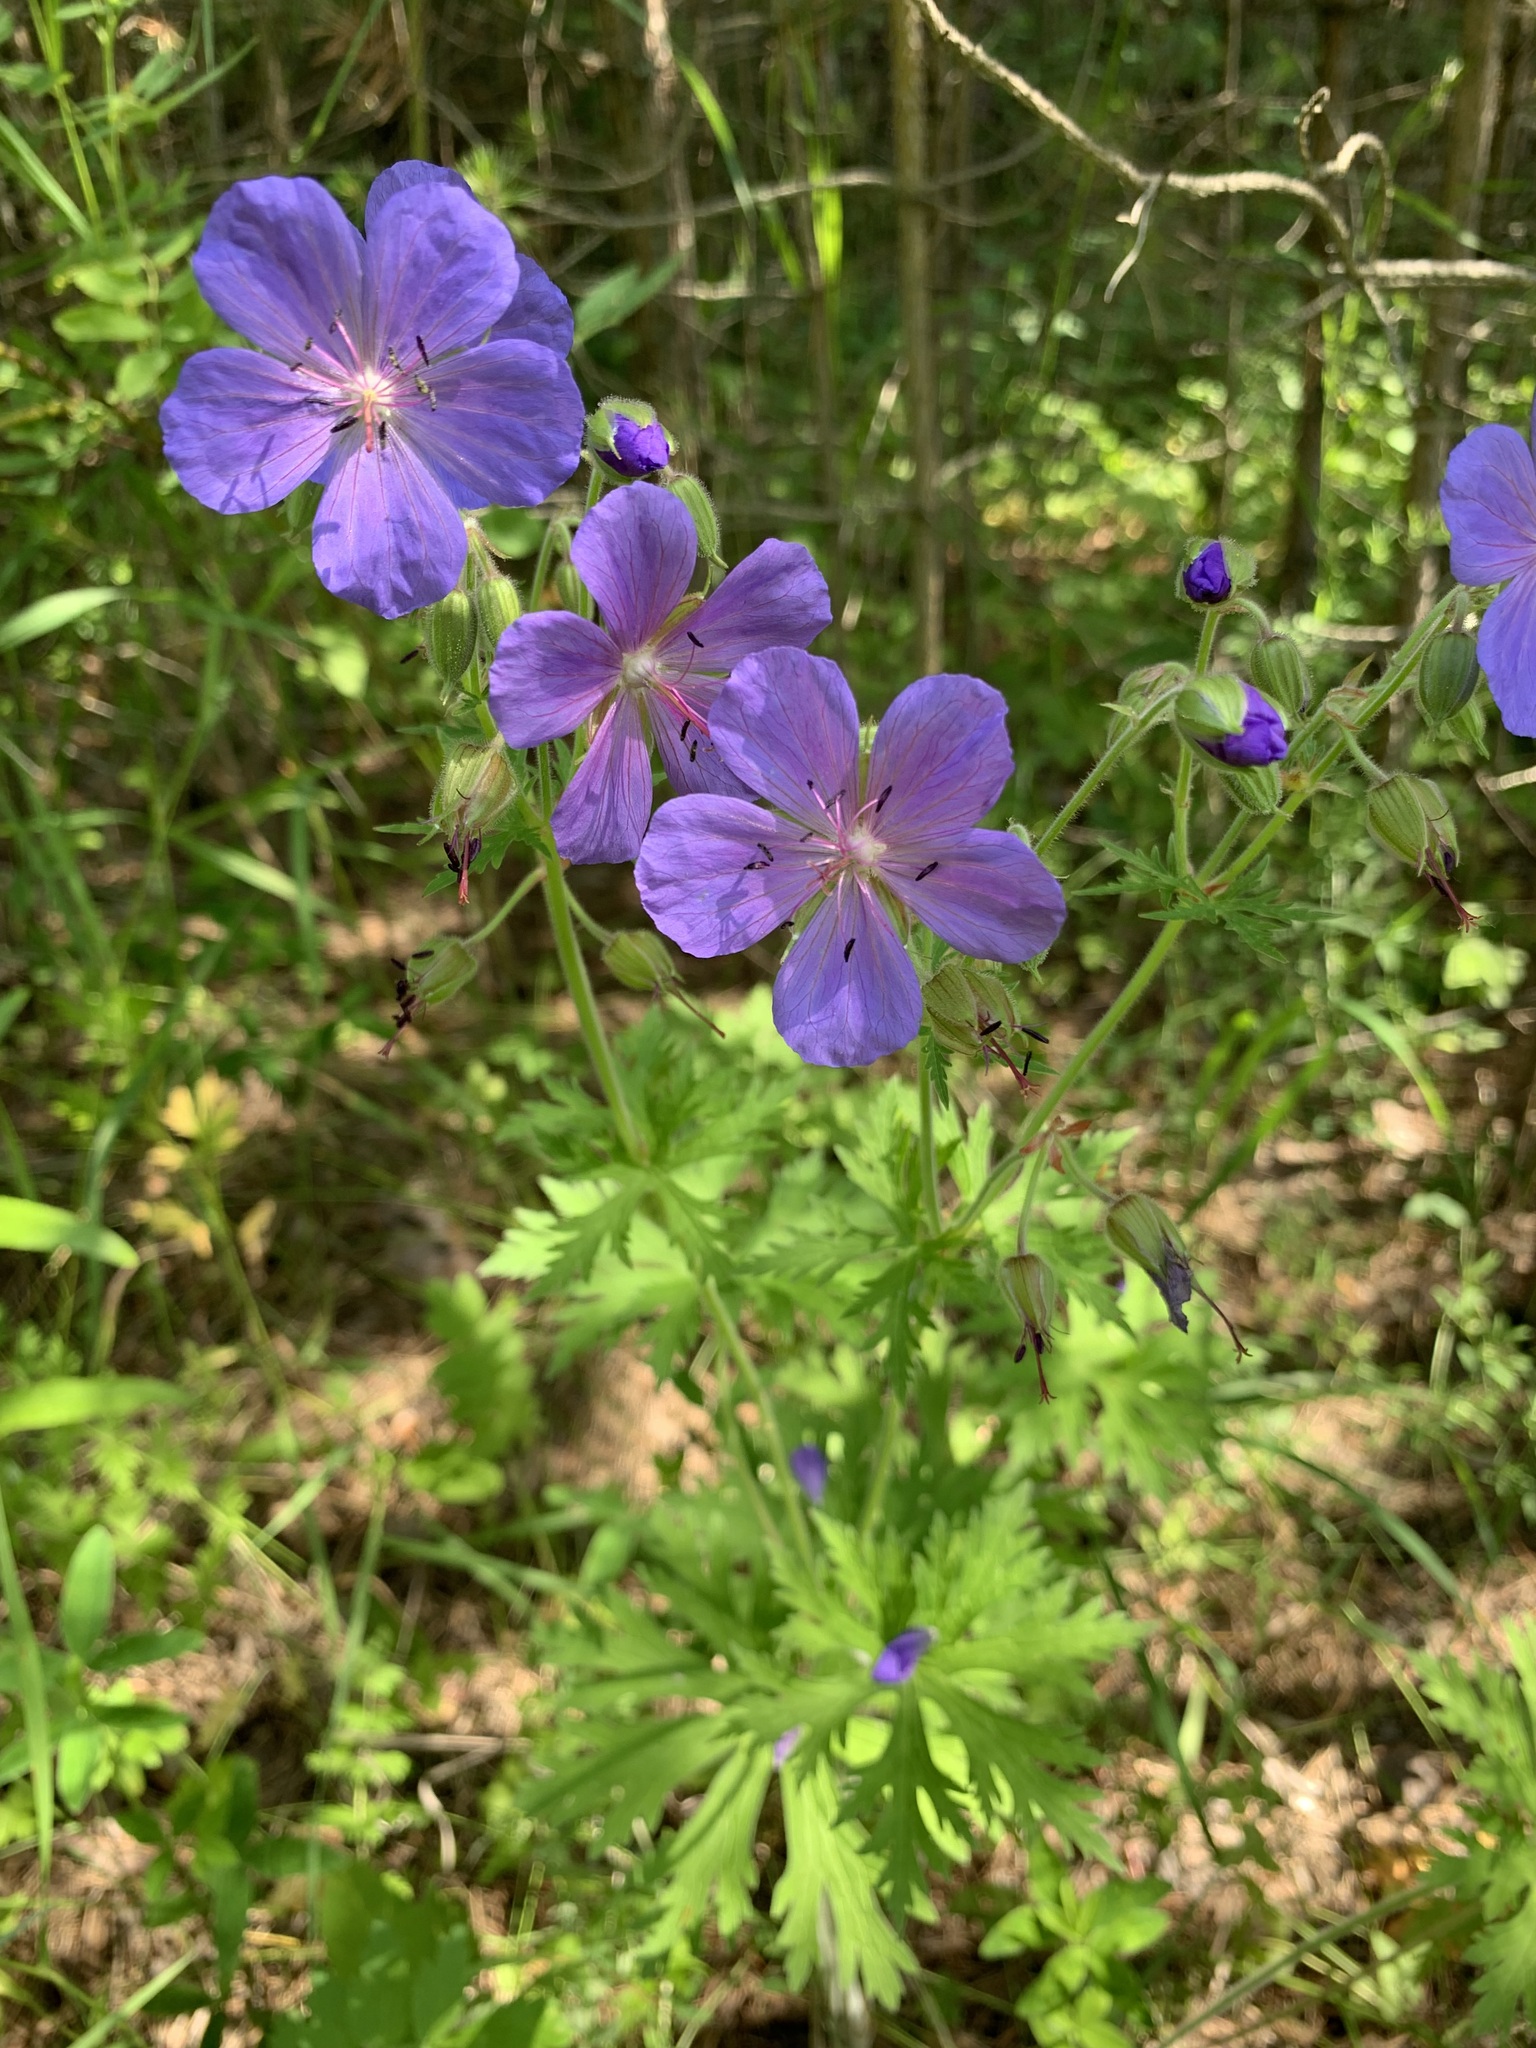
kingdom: Plantae
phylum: Tracheophyta
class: Magnoliopsida
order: Geraniales
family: Geraniaceae
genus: Geranium
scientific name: Geranium pratense
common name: Meadow crane's-bill
